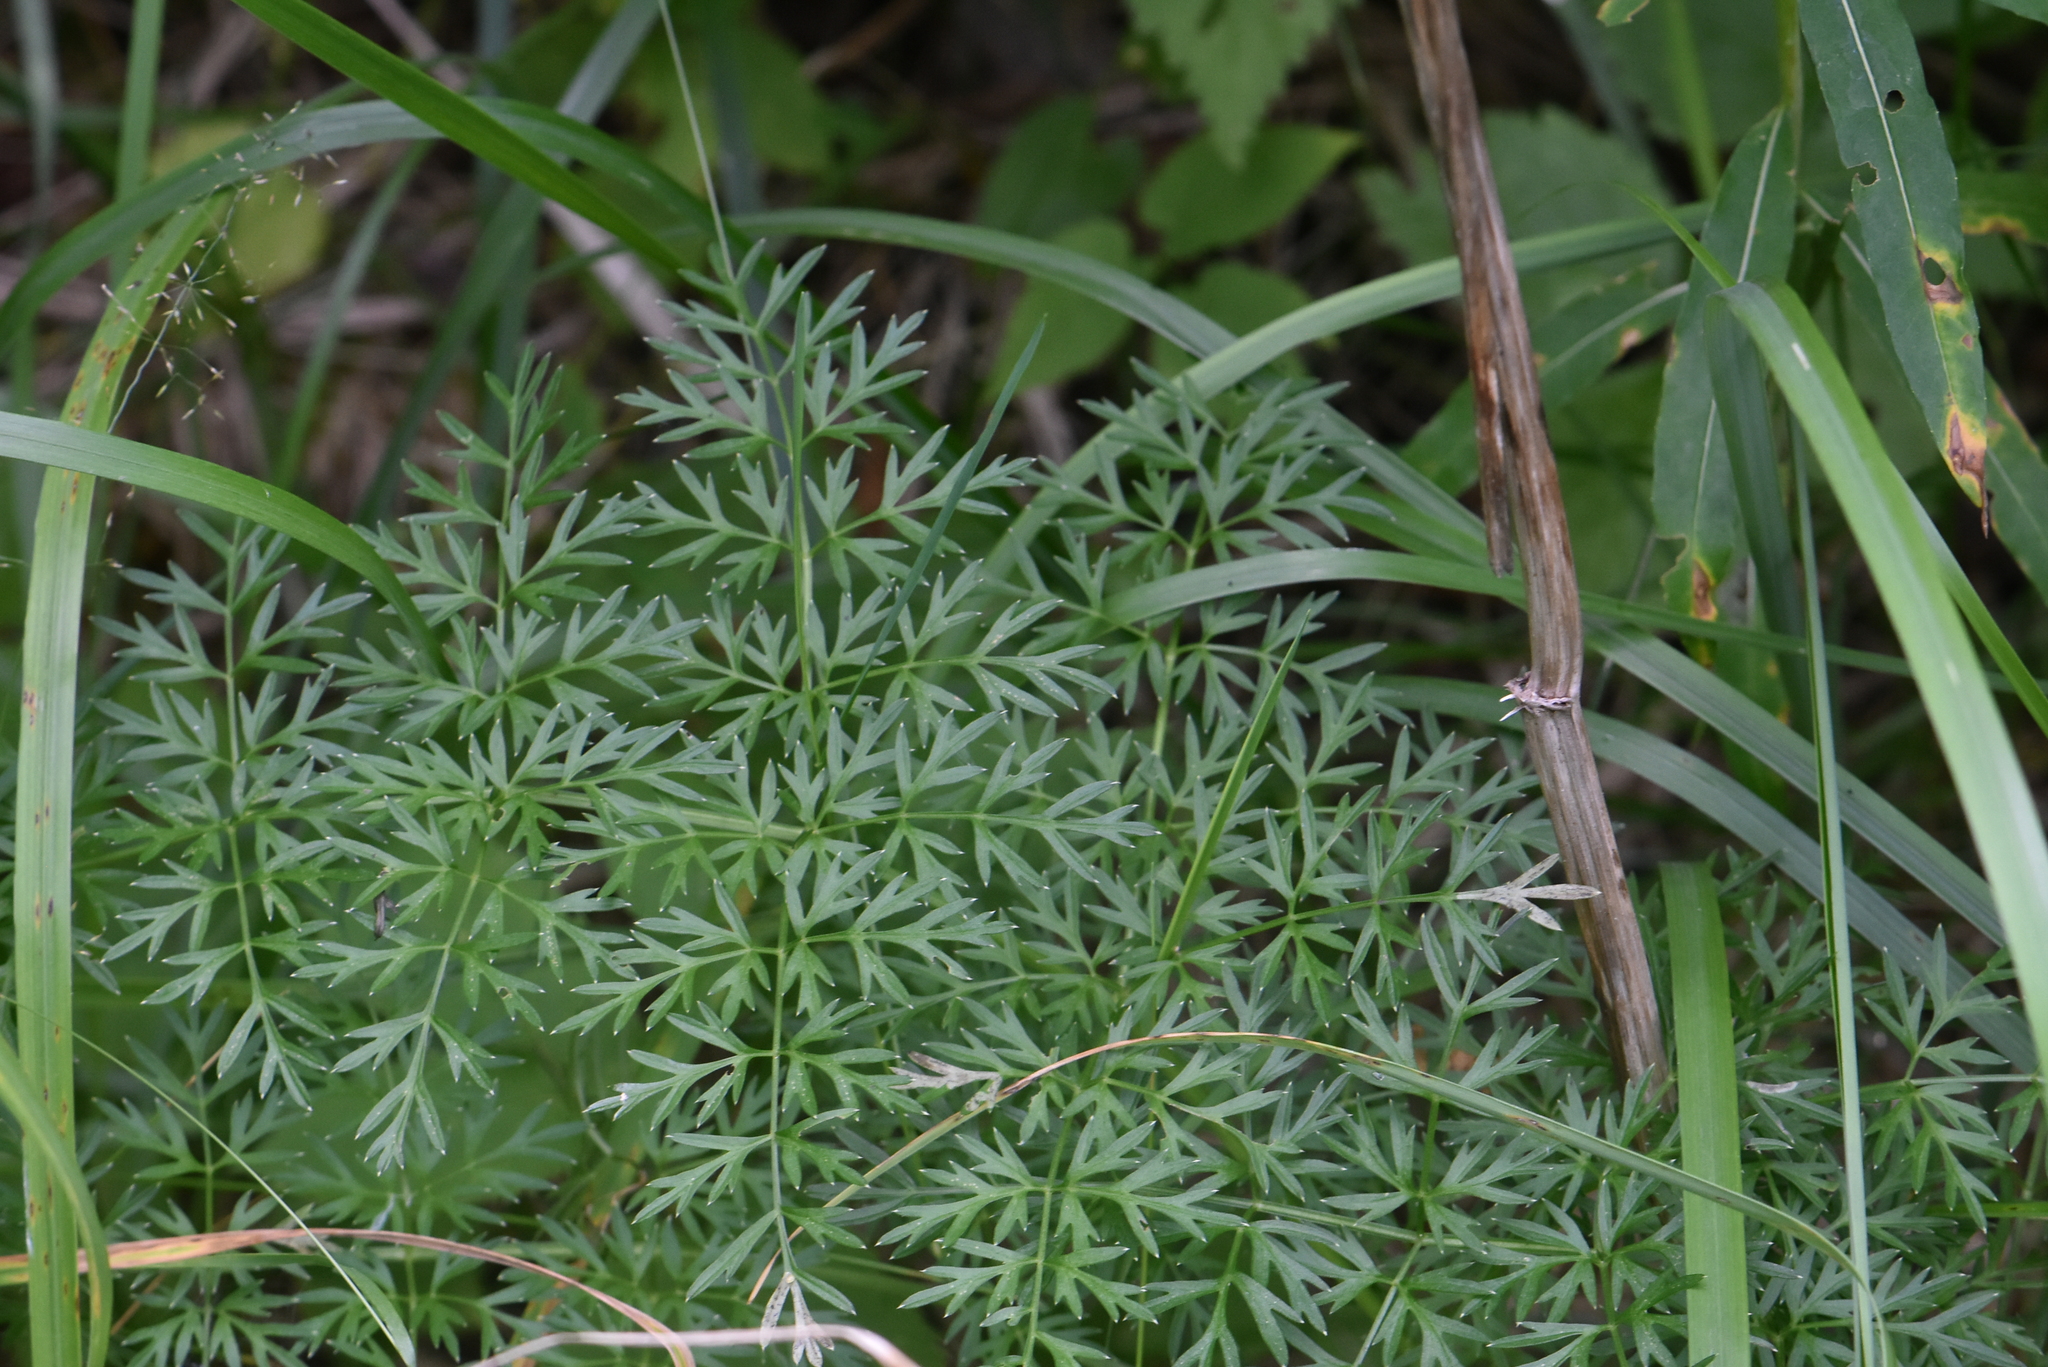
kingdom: Plantae
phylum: Tracheophyta
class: Magnoliopsida
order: Apiales
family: Apiaceae
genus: Selinum
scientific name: Selinum carvifolia
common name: Cambridge milk-parsley
